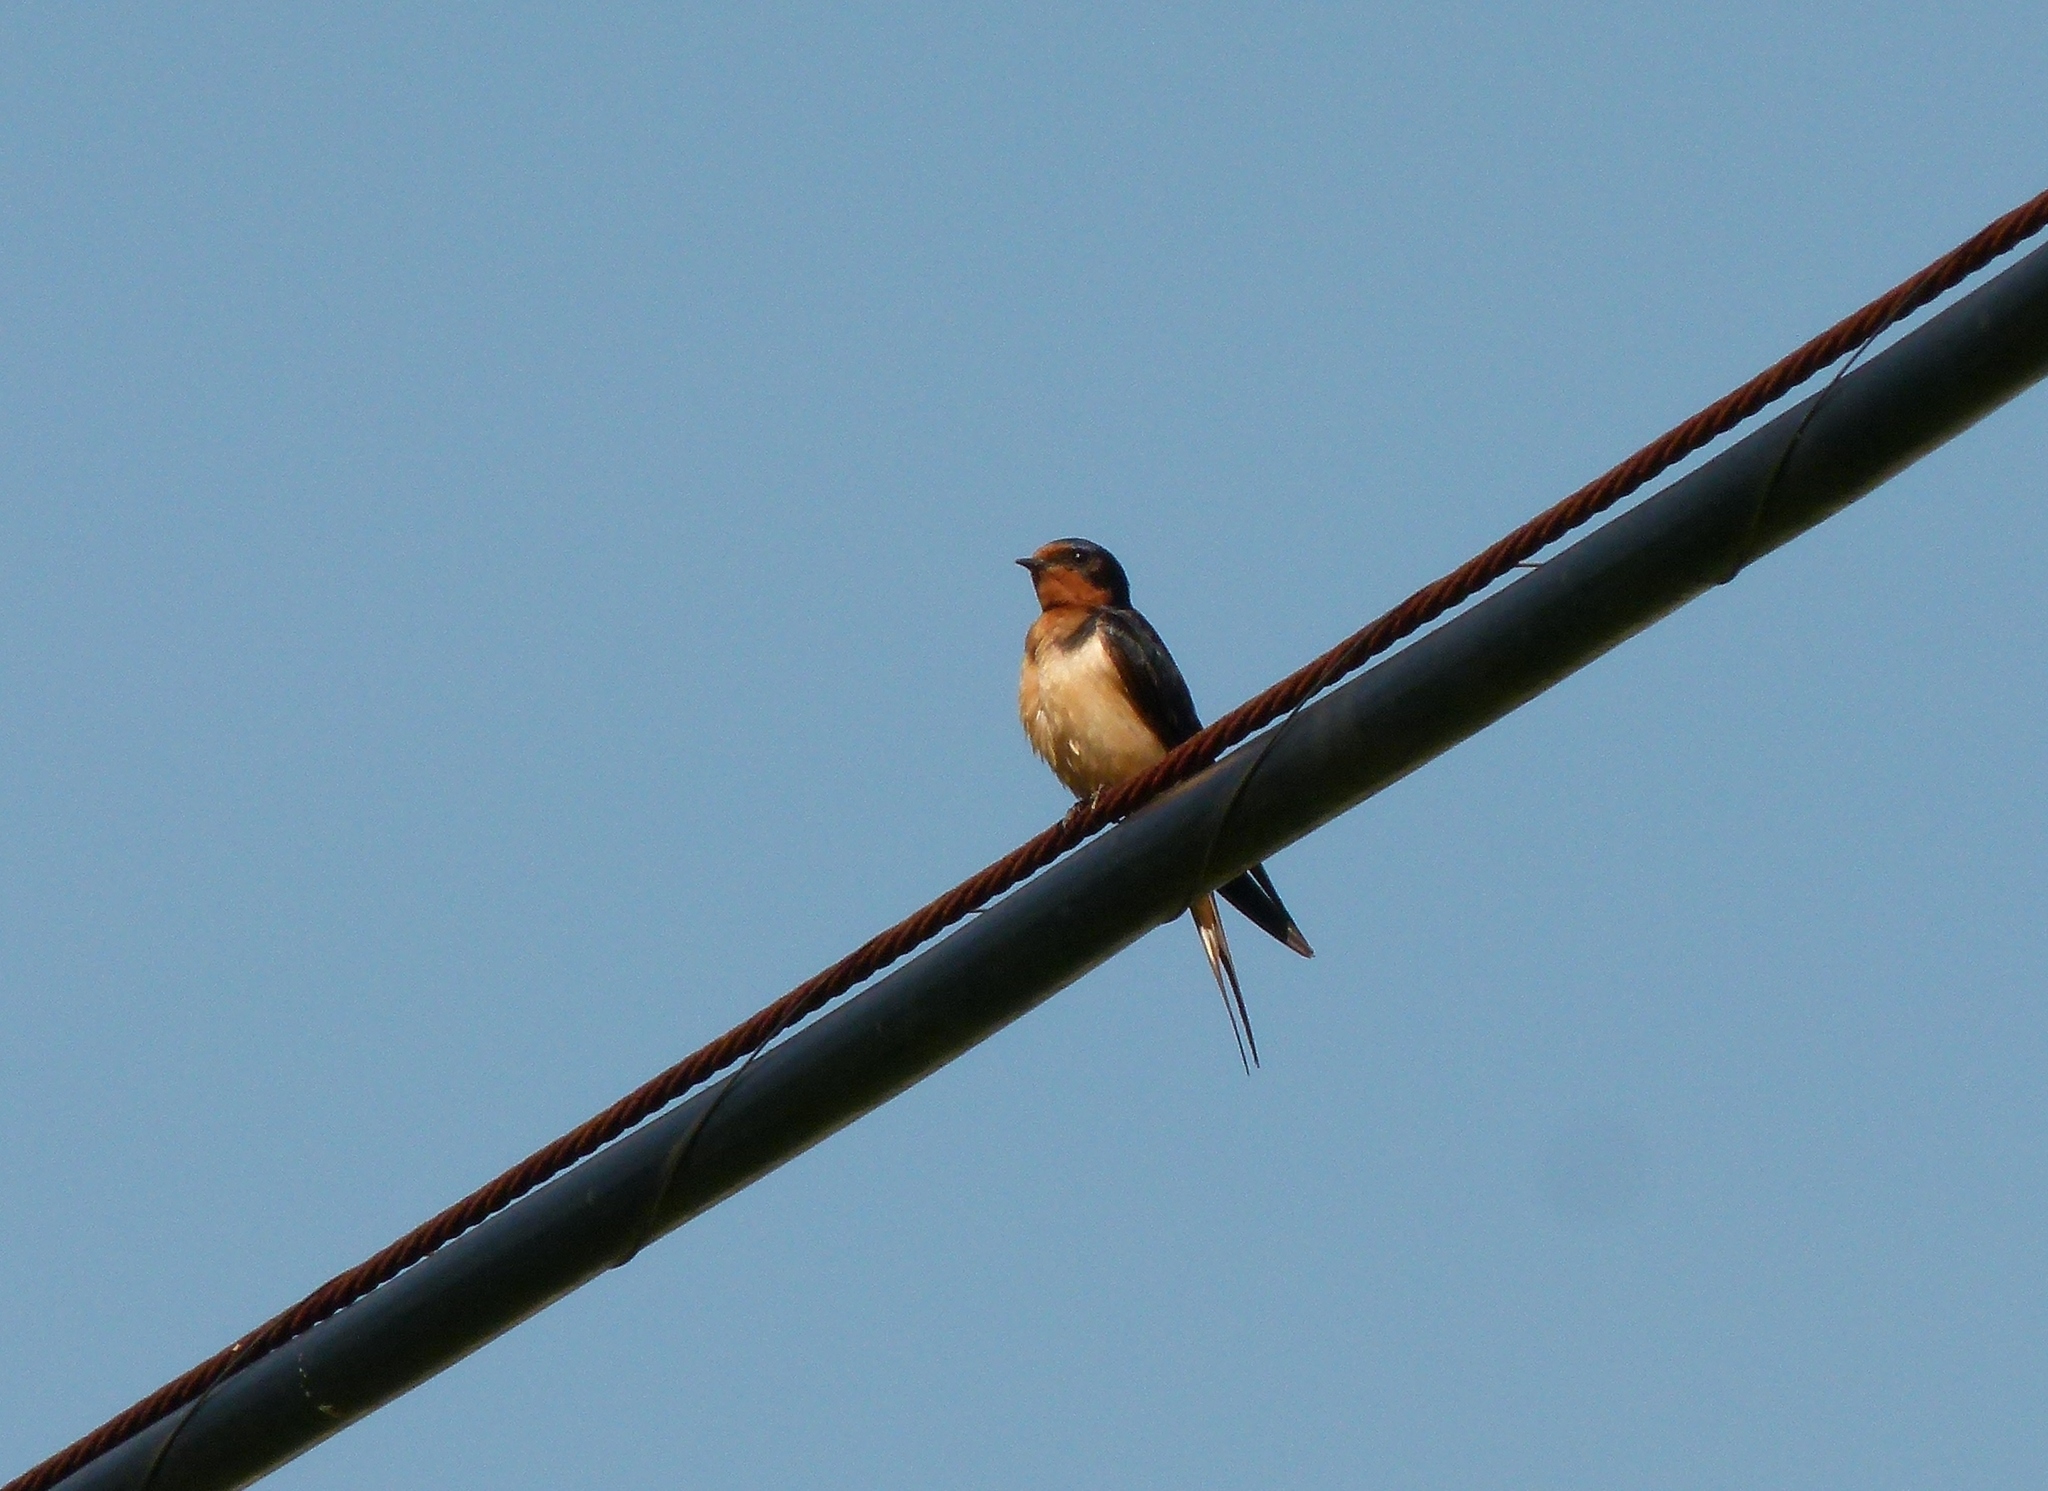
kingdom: Animalia
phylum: Chordata
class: Aves
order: Passeriformes
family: Hirundinidae
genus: Hirundo
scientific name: Hirundo rustica
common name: Barn swallow
